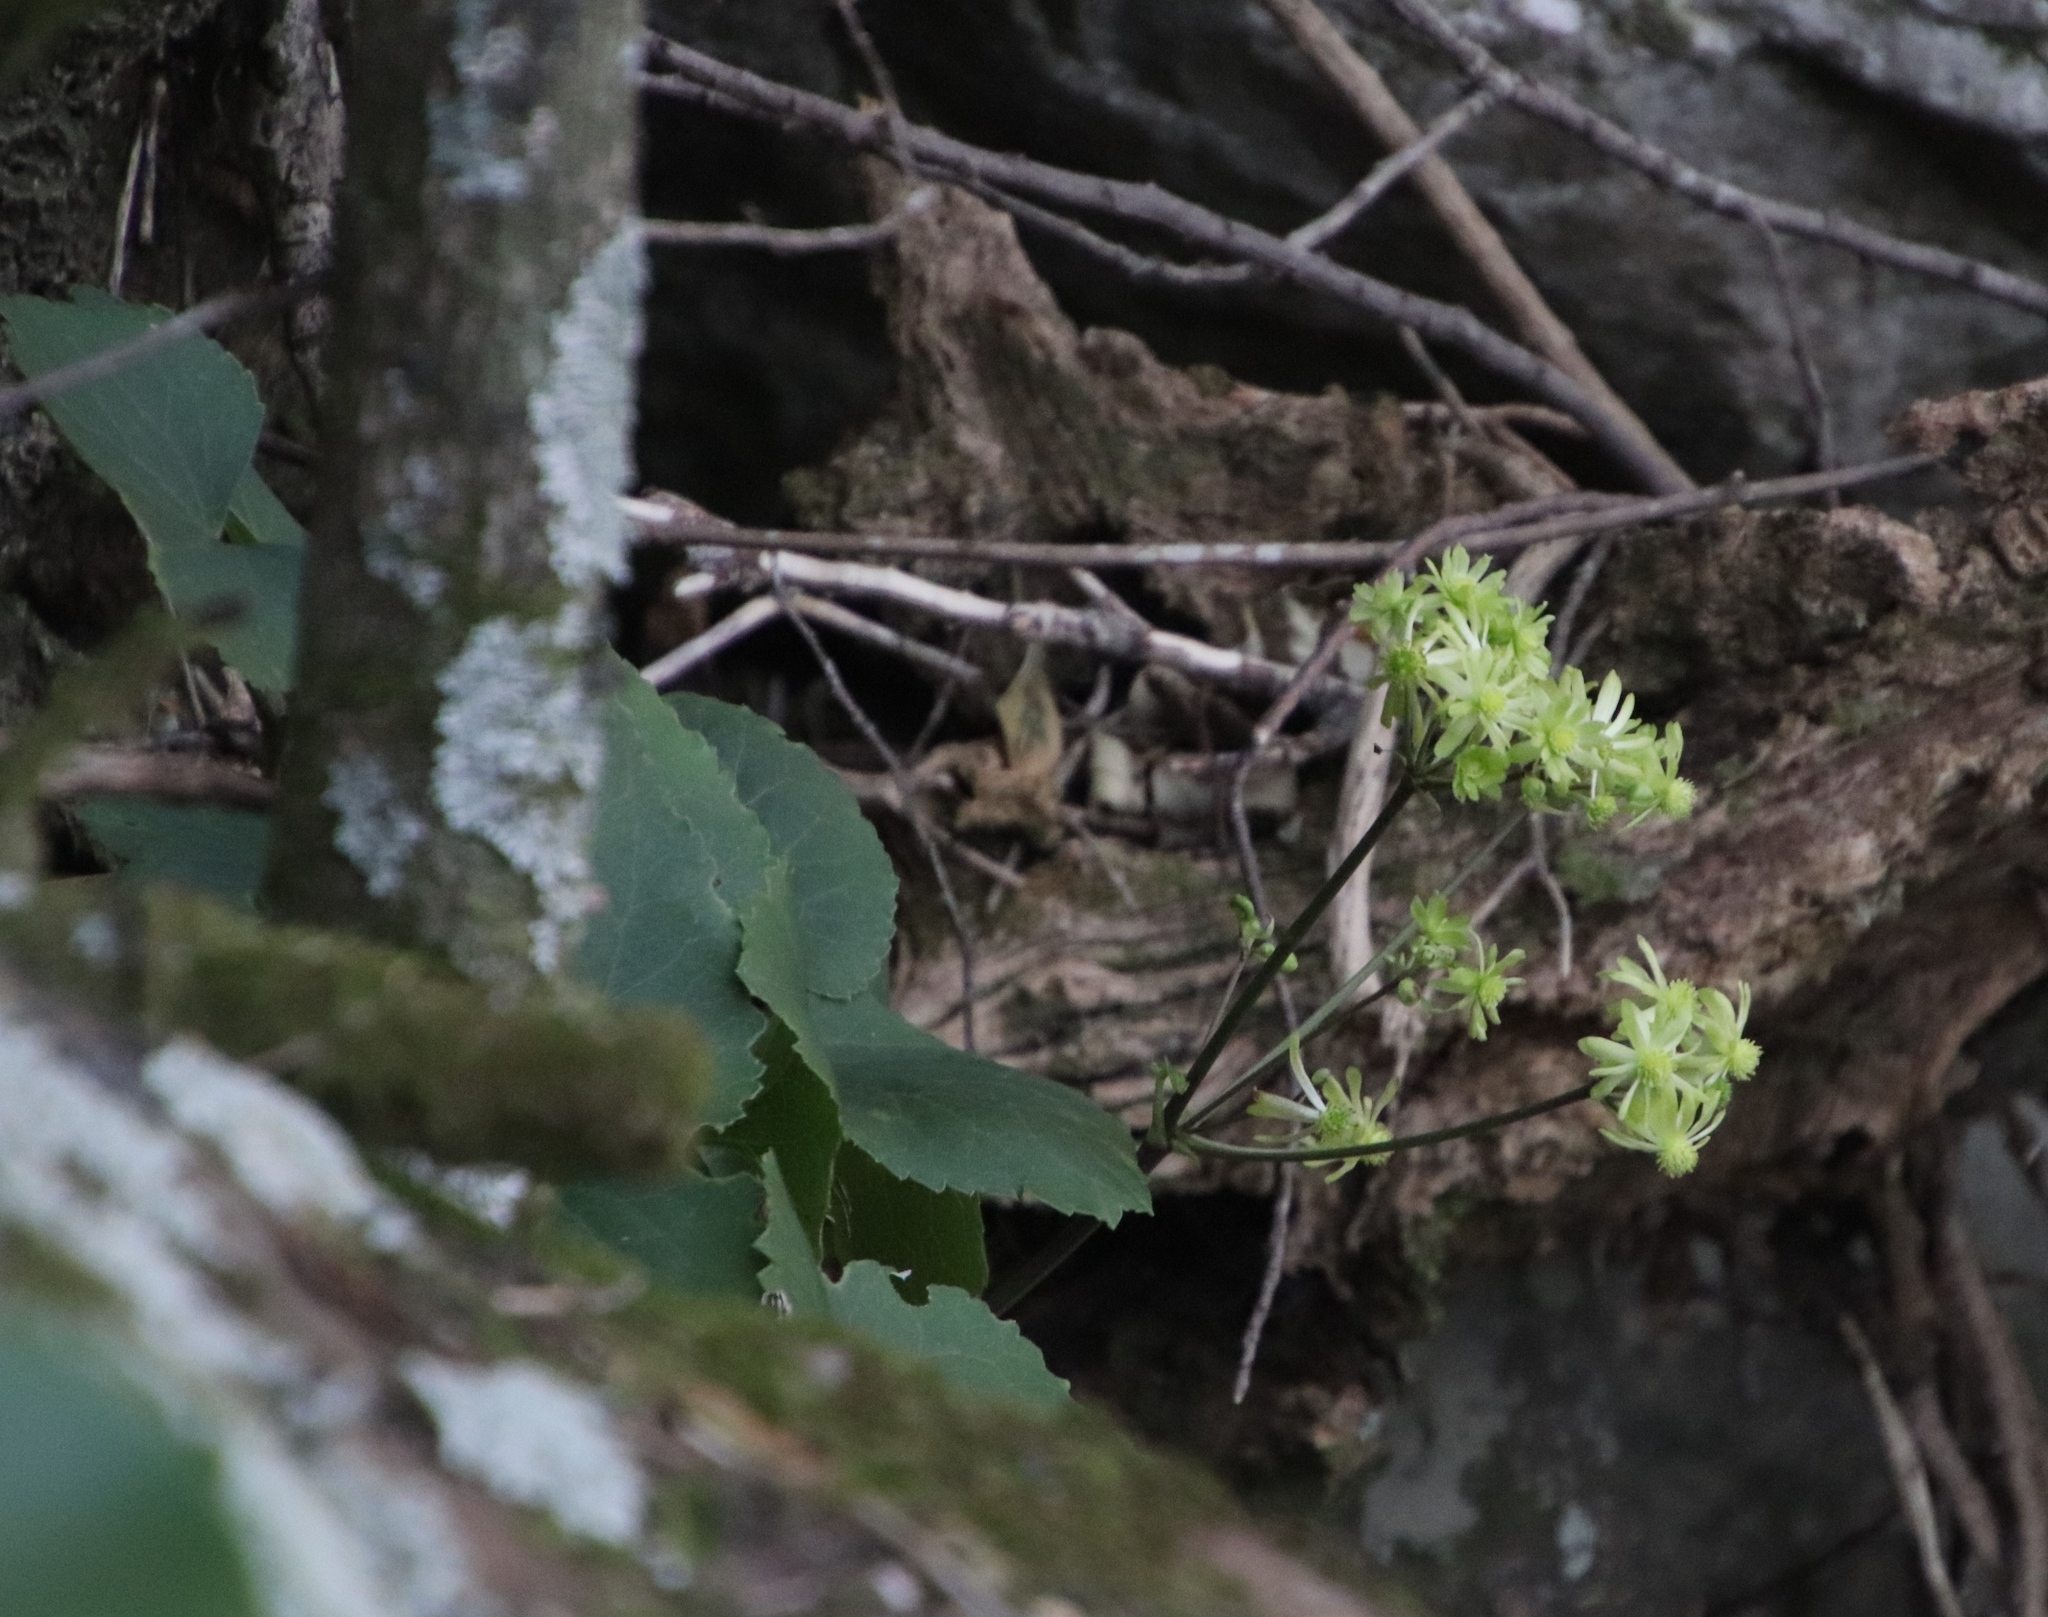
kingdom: Plantae
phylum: Tracheophyta
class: Magnoliopsida
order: Ranunculales
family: Ranunculaceae
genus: Knowltonia
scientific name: Knowltonia vesicatoria
